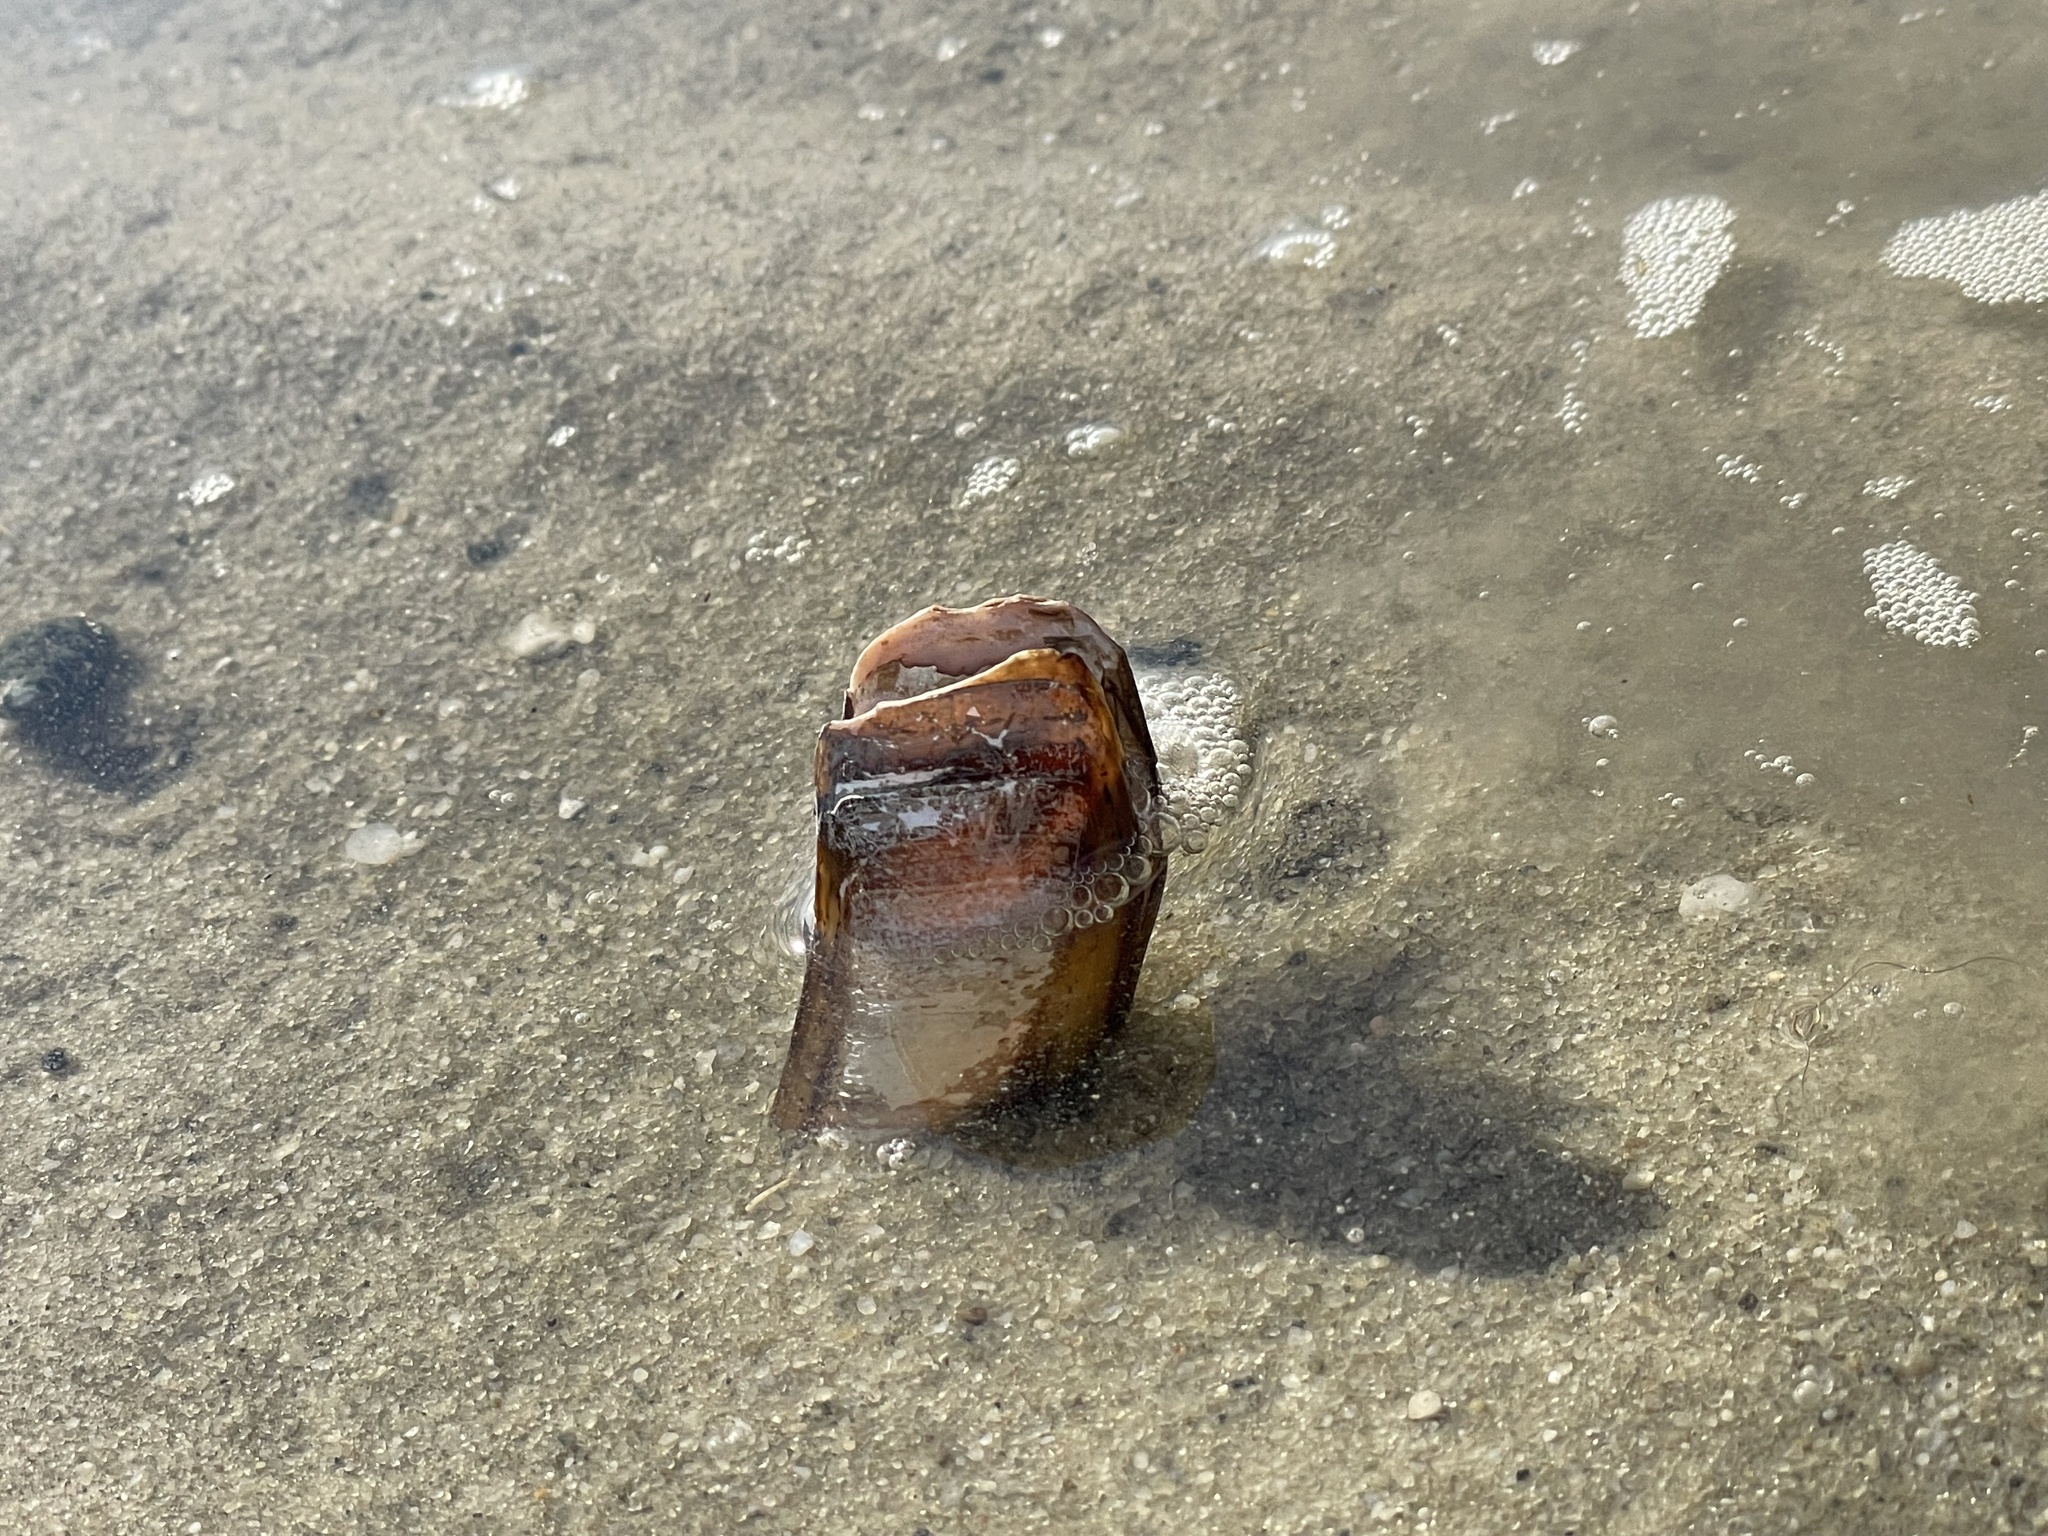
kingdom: Animalia
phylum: Mollusca
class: Bivalvia
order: Adapedonta
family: Pharidae
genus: Ensis
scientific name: Ensis leei
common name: American jack knife clam
